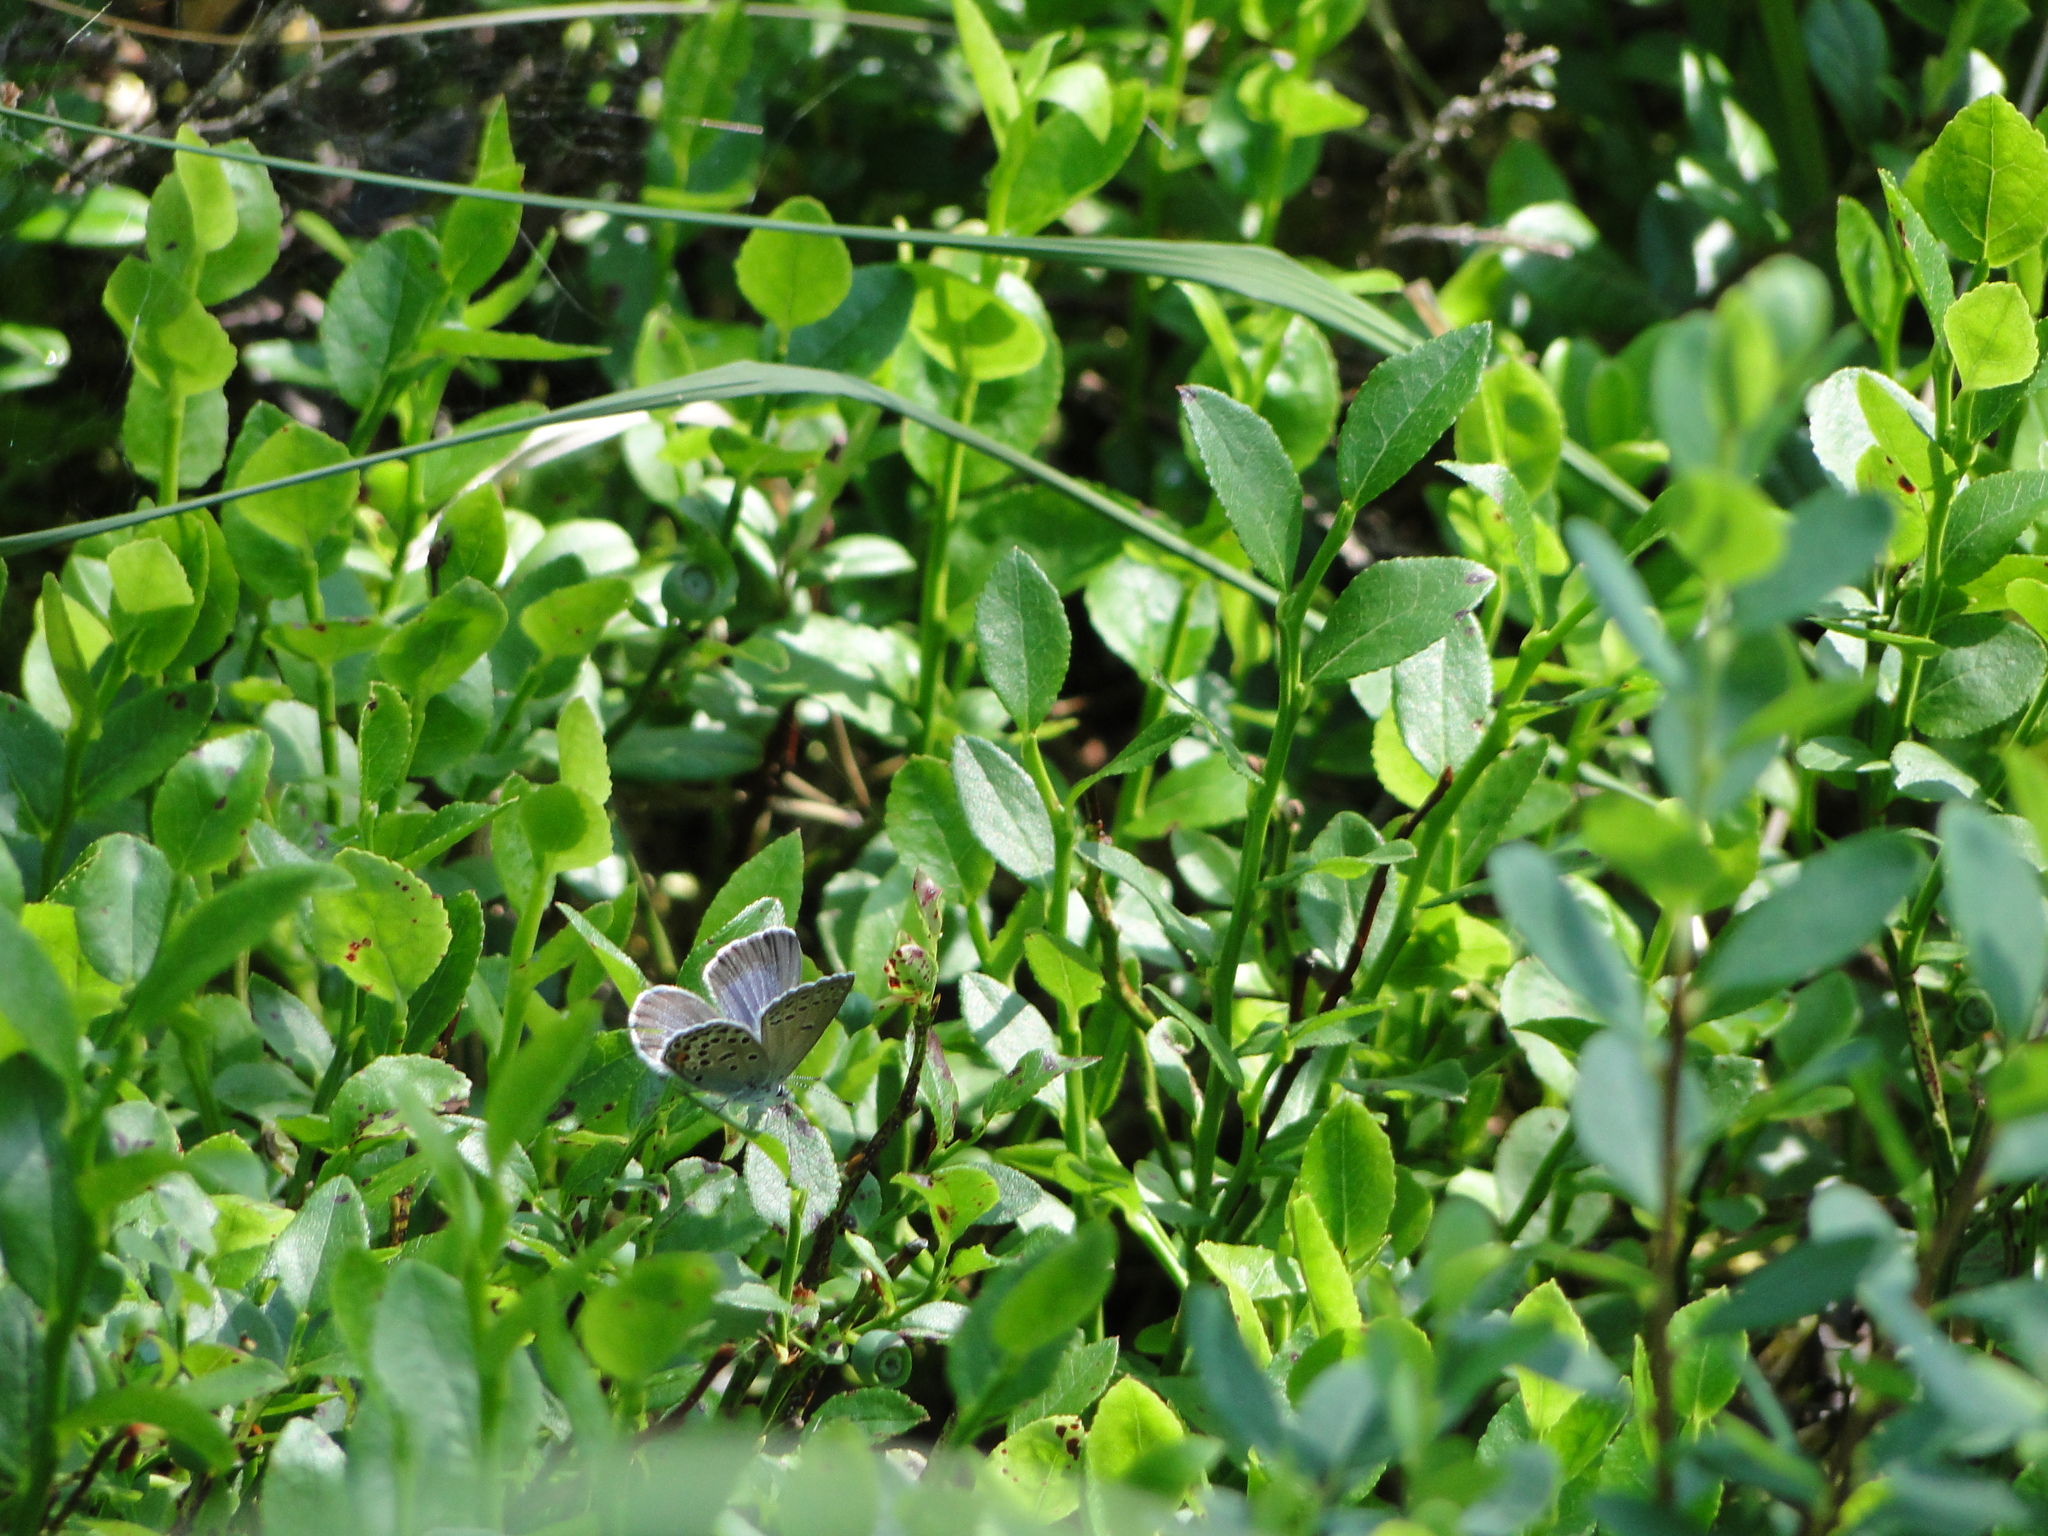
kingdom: Animalia
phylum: Arthropoda
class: Insecta
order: Lepidoptera
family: Lycaenidae
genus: Vacciniina
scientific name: Vacciniina optilete
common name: Cranberry blue
